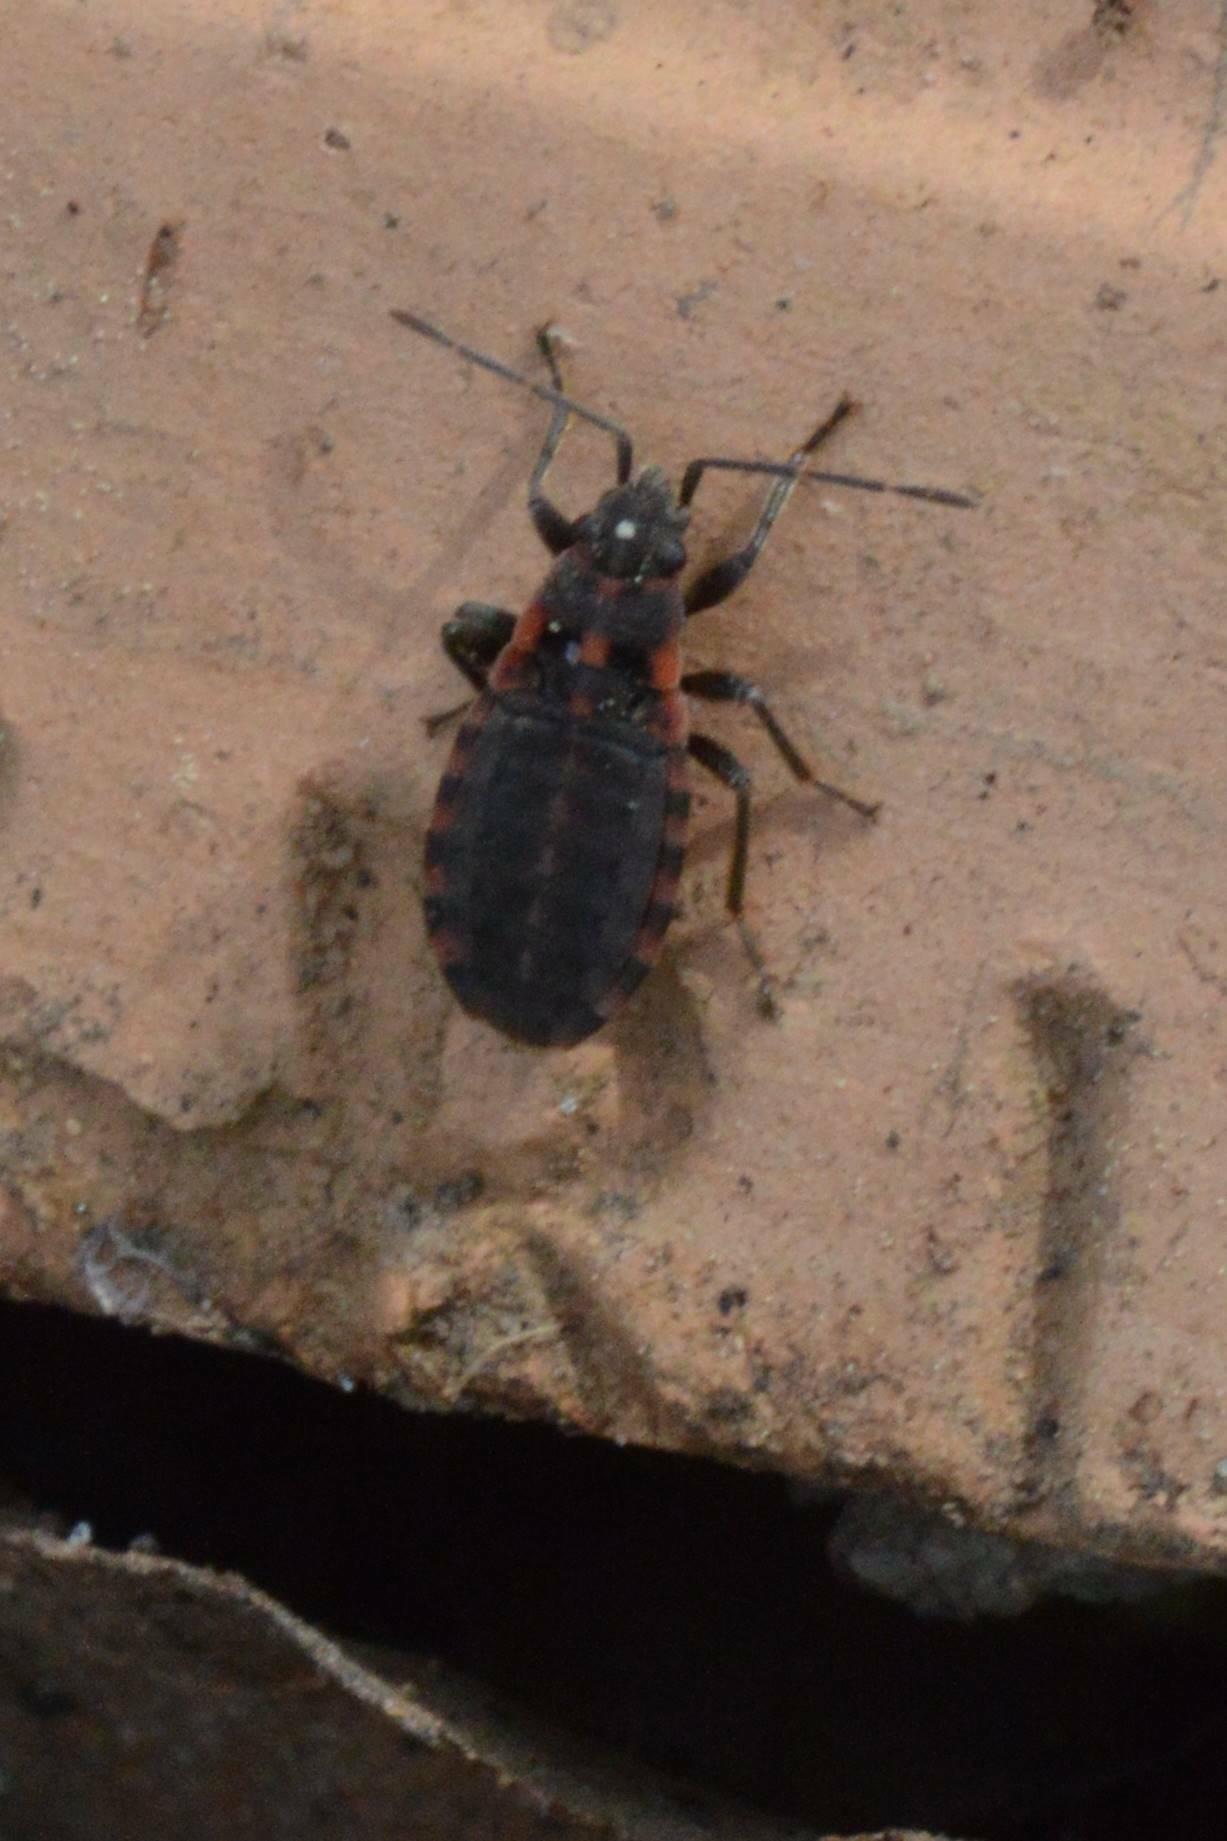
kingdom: Animalia
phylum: Arthropoda
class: Insecta
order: Hemiptera
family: Lygaeidae
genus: Apterola
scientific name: Apterola kunckeli
